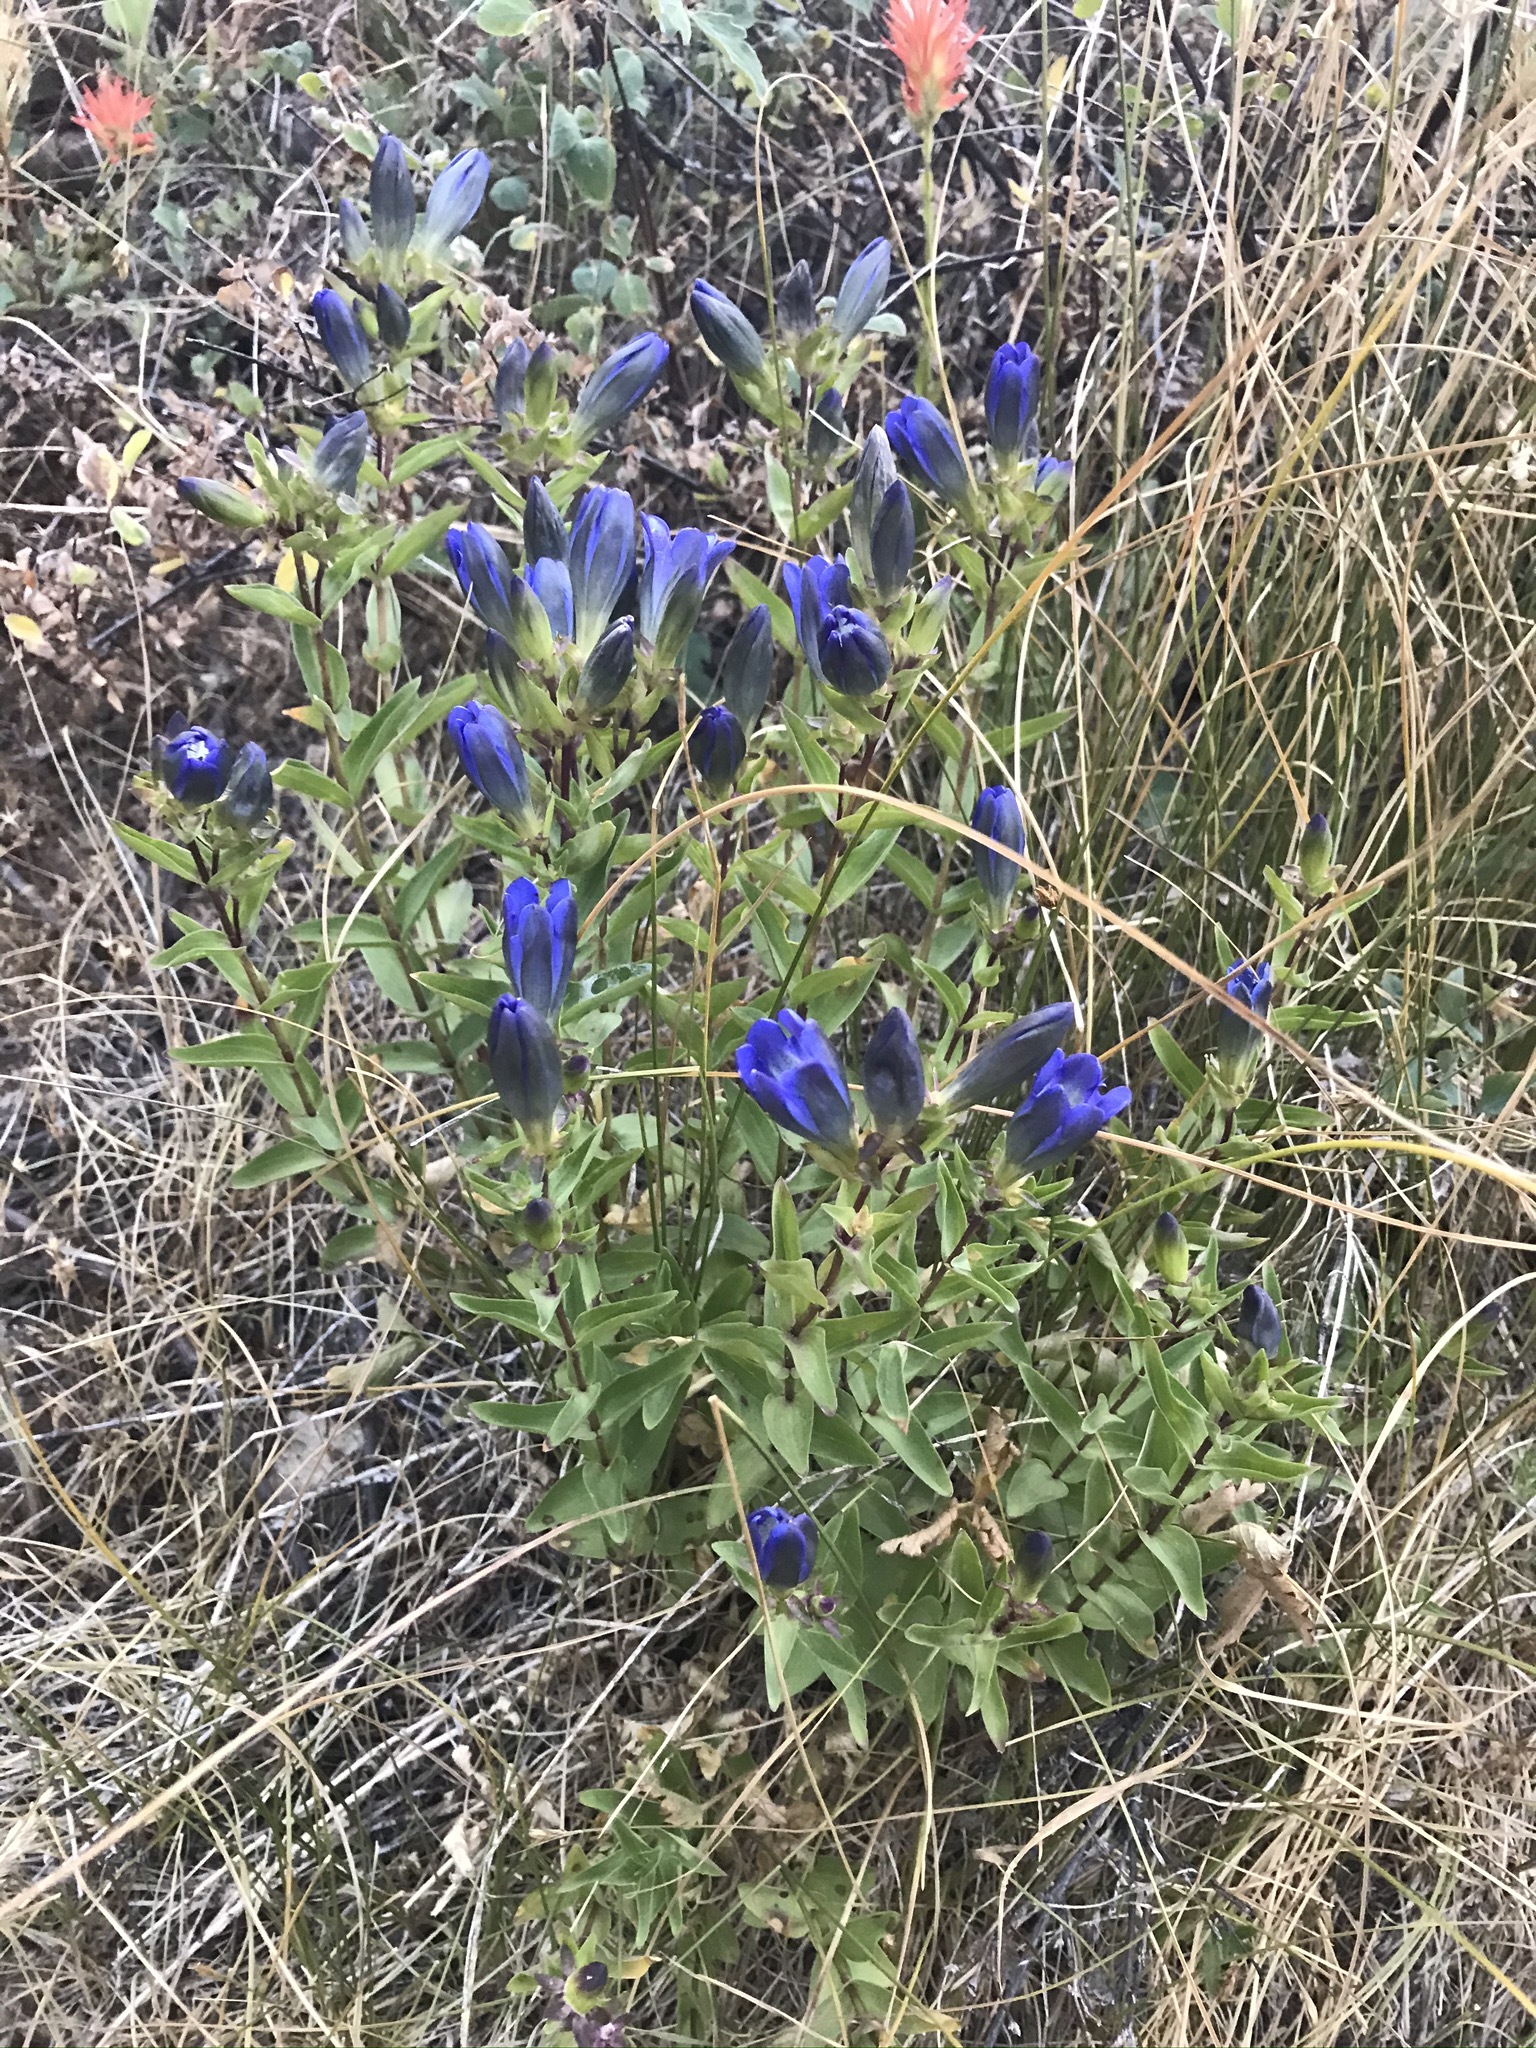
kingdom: Plantae
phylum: Tracheophyta
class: Magnoliopsida
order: Gentianales
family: Gentianaceae
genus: Gentiana
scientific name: Gentiana calycosa
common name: Rainier pleated gentian
